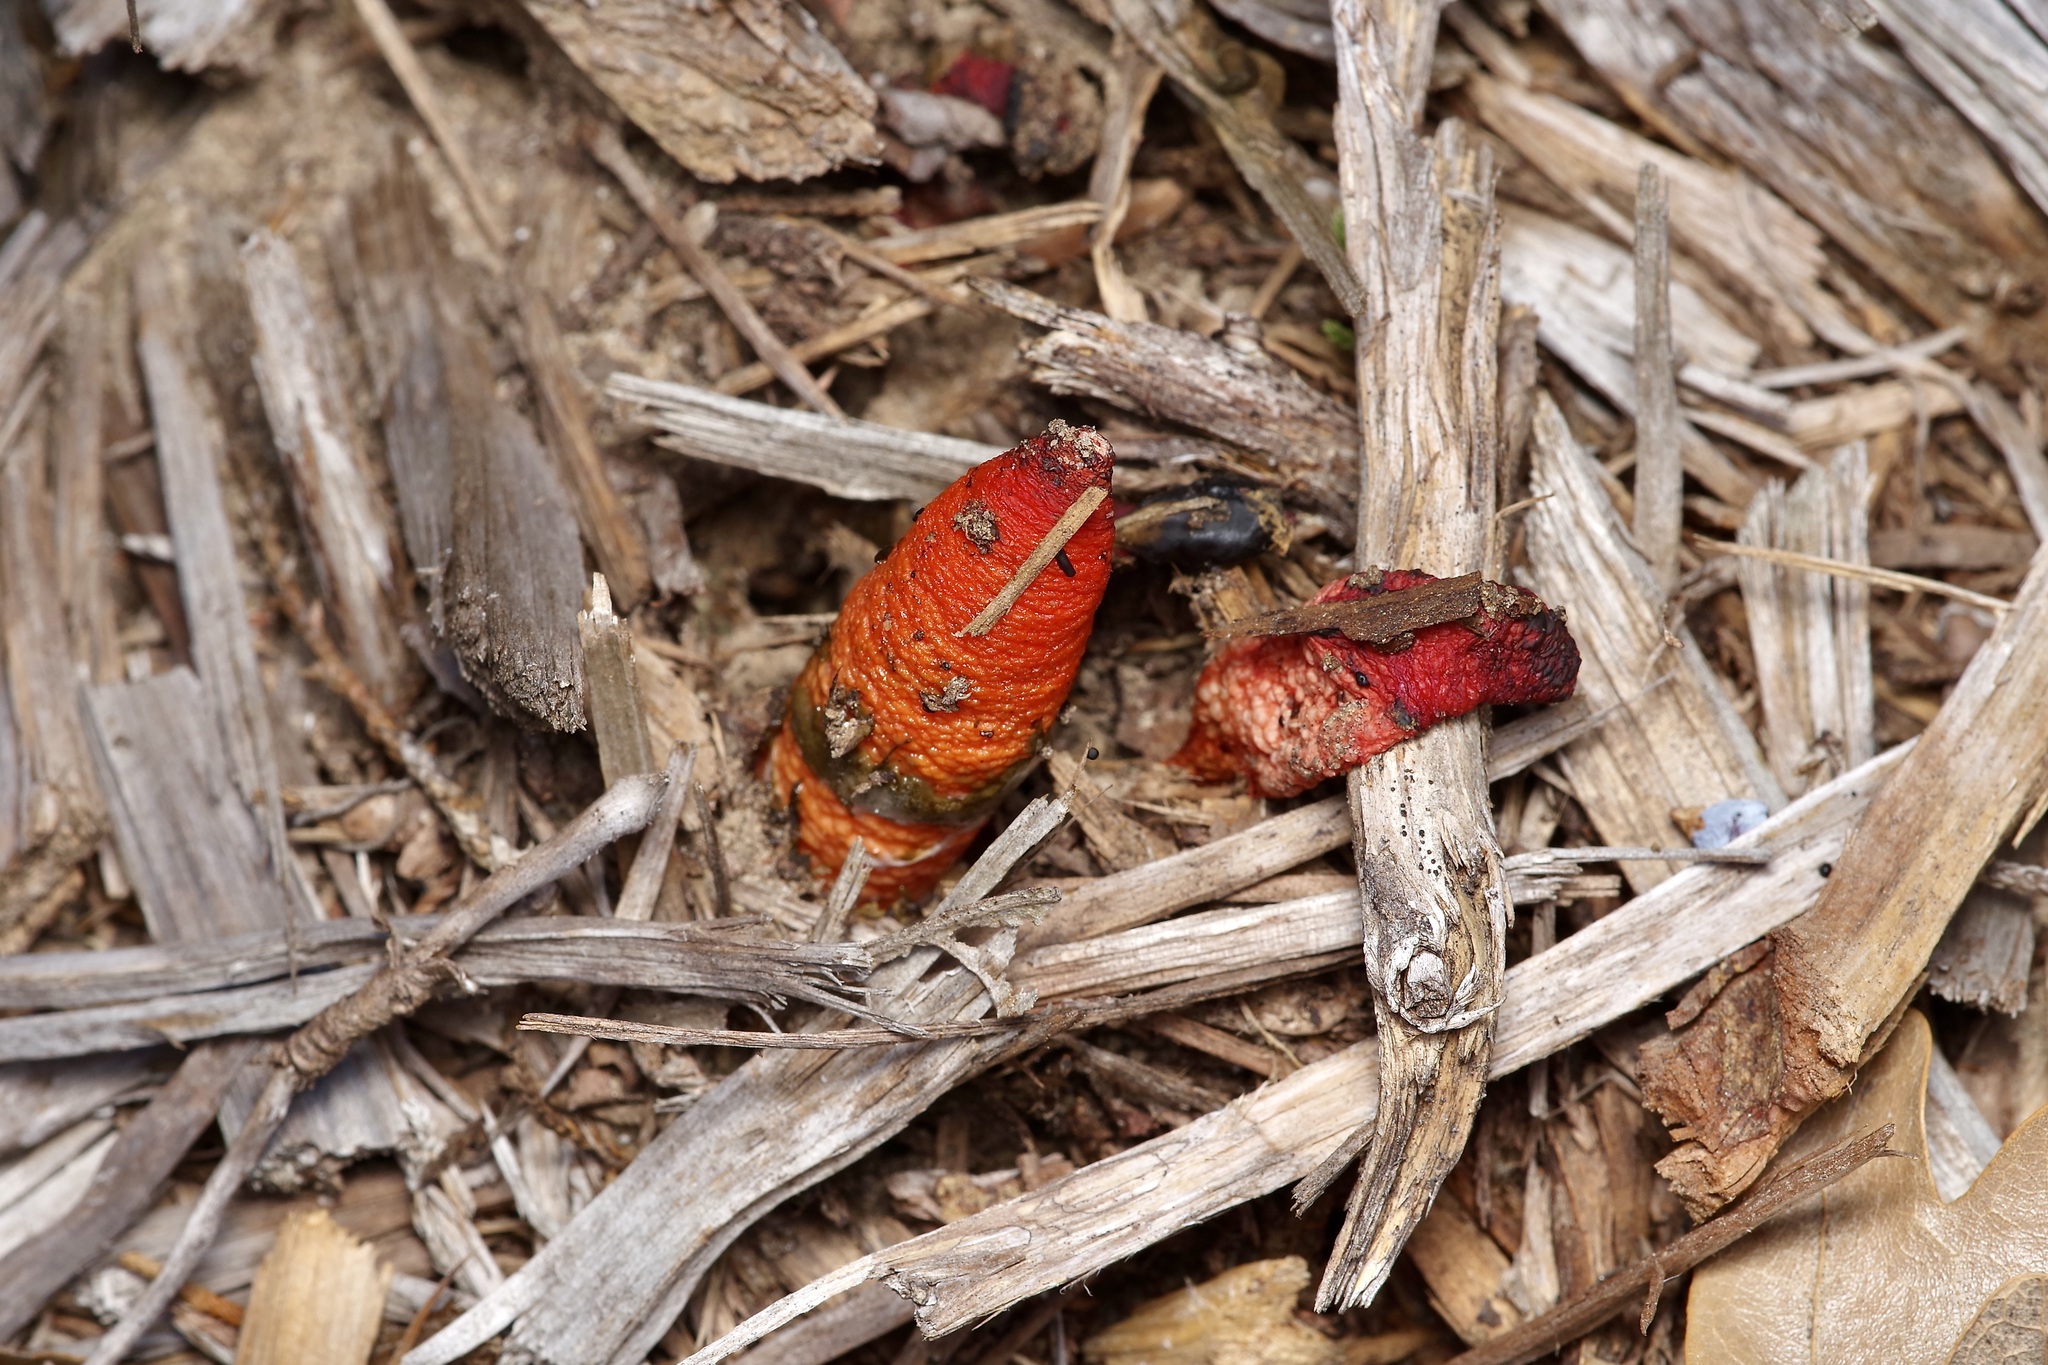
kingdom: Fungi
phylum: Basidiomycota
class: Agaricomycetes
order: Phallales
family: Phallaceae
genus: Mutinus
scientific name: Mutinus elegans
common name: Devil's dipstick
